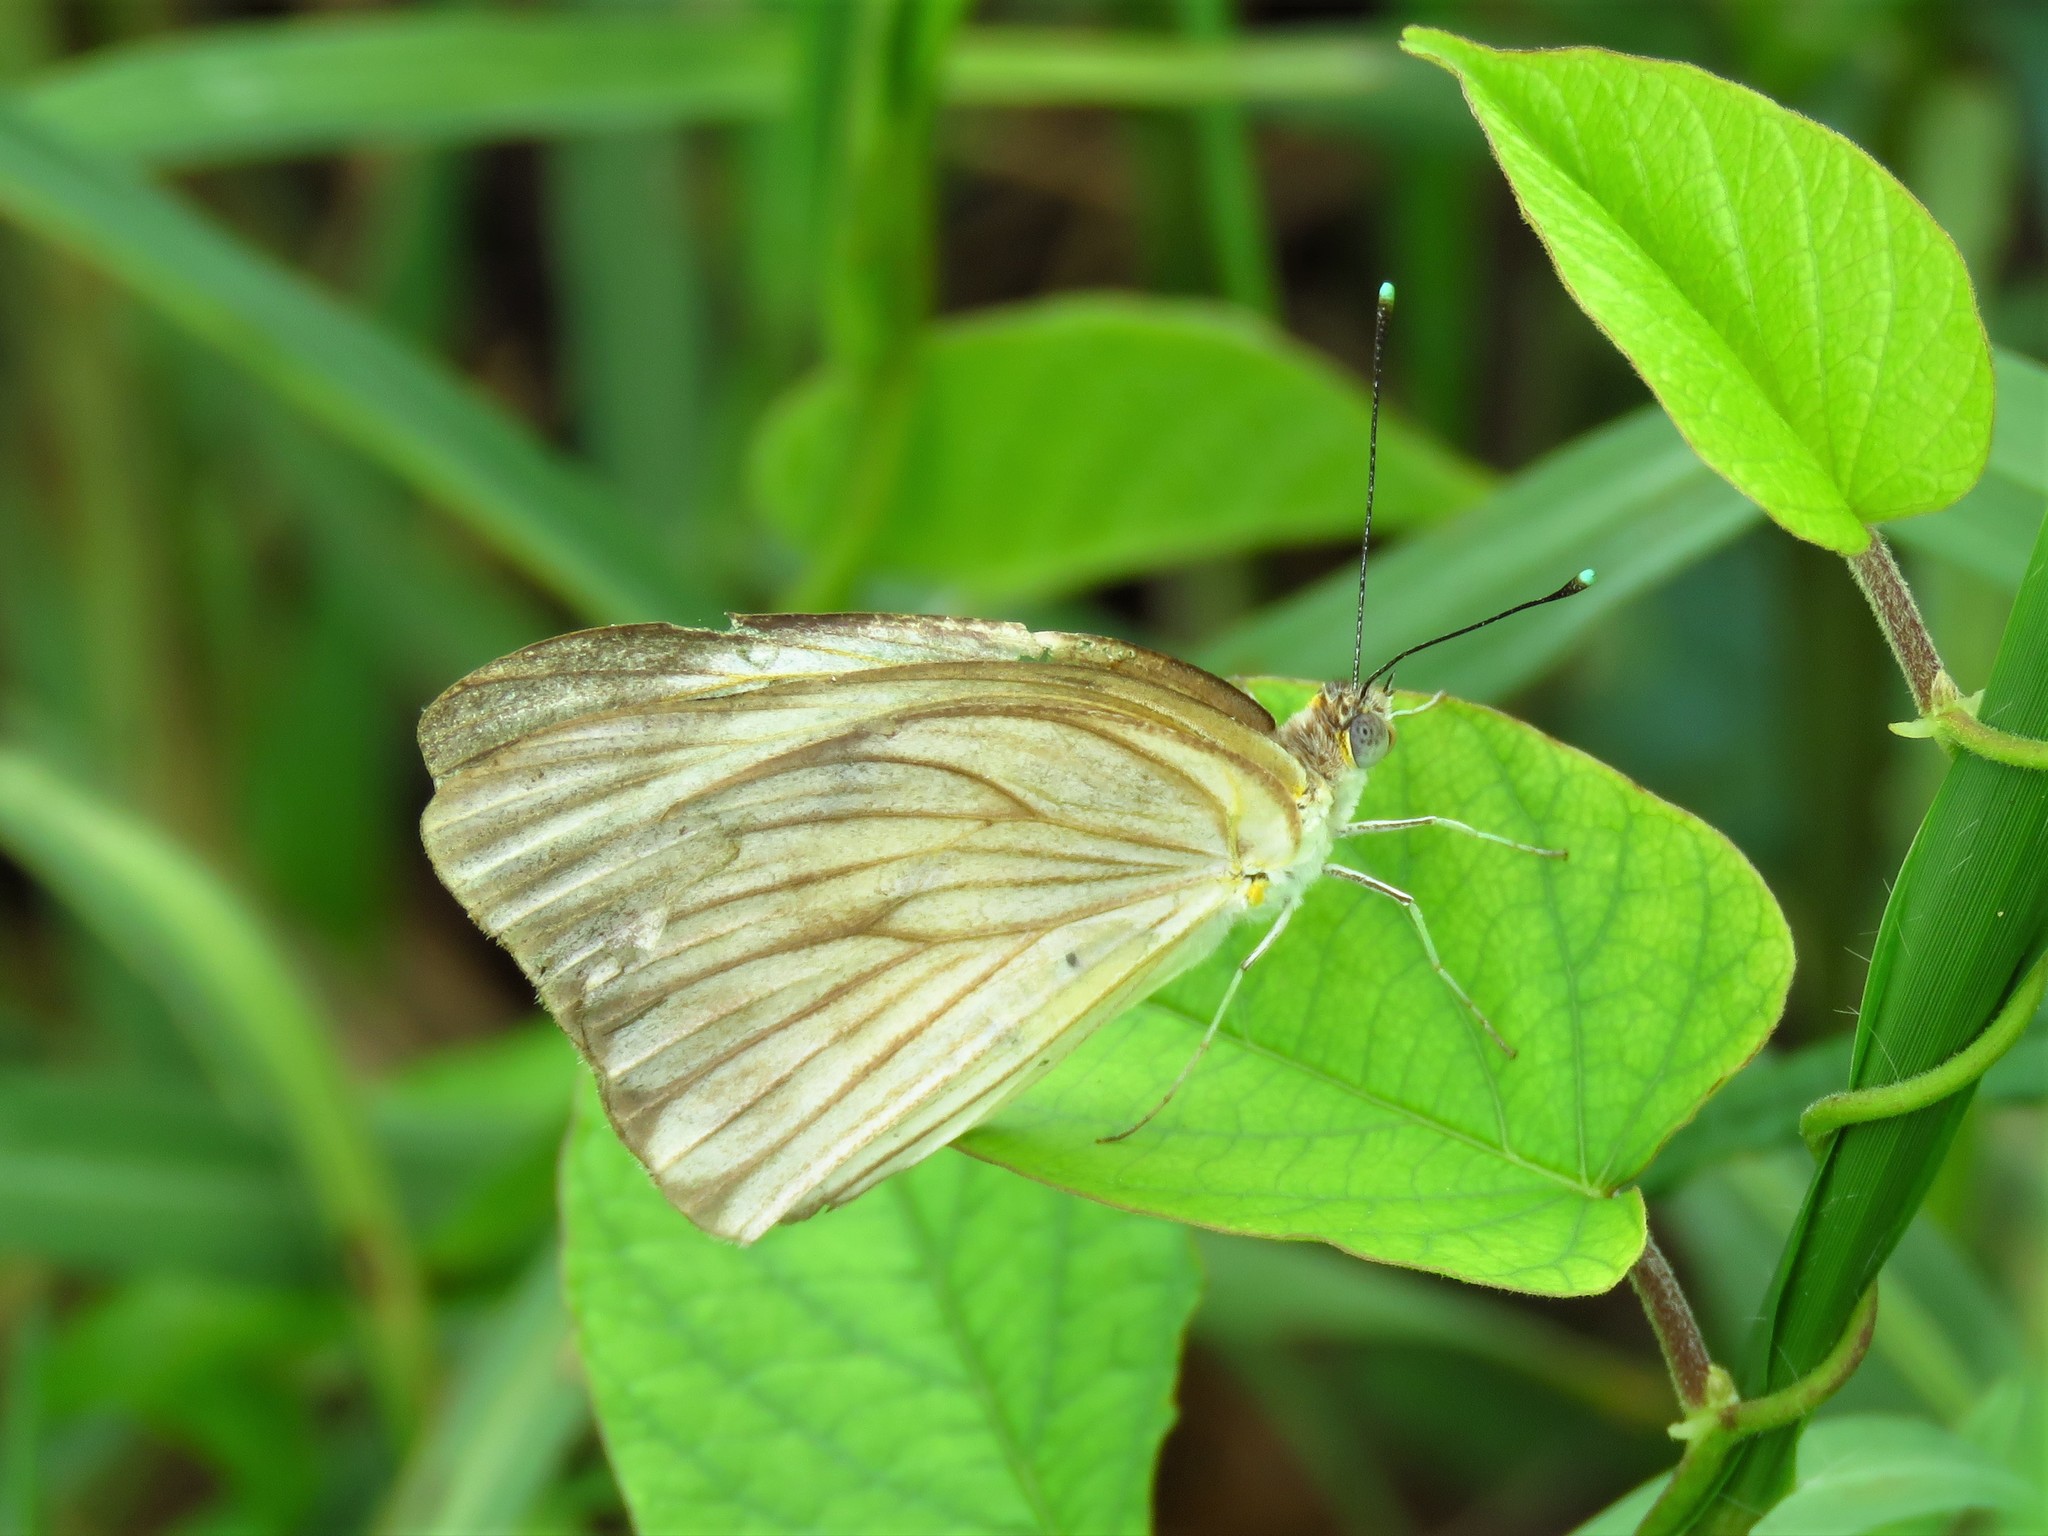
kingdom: Animalia
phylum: Arthropoda
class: Insecta
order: Lepidoptera
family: Pieridae
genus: Ascia
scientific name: Ascia monuste
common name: Great southern white
